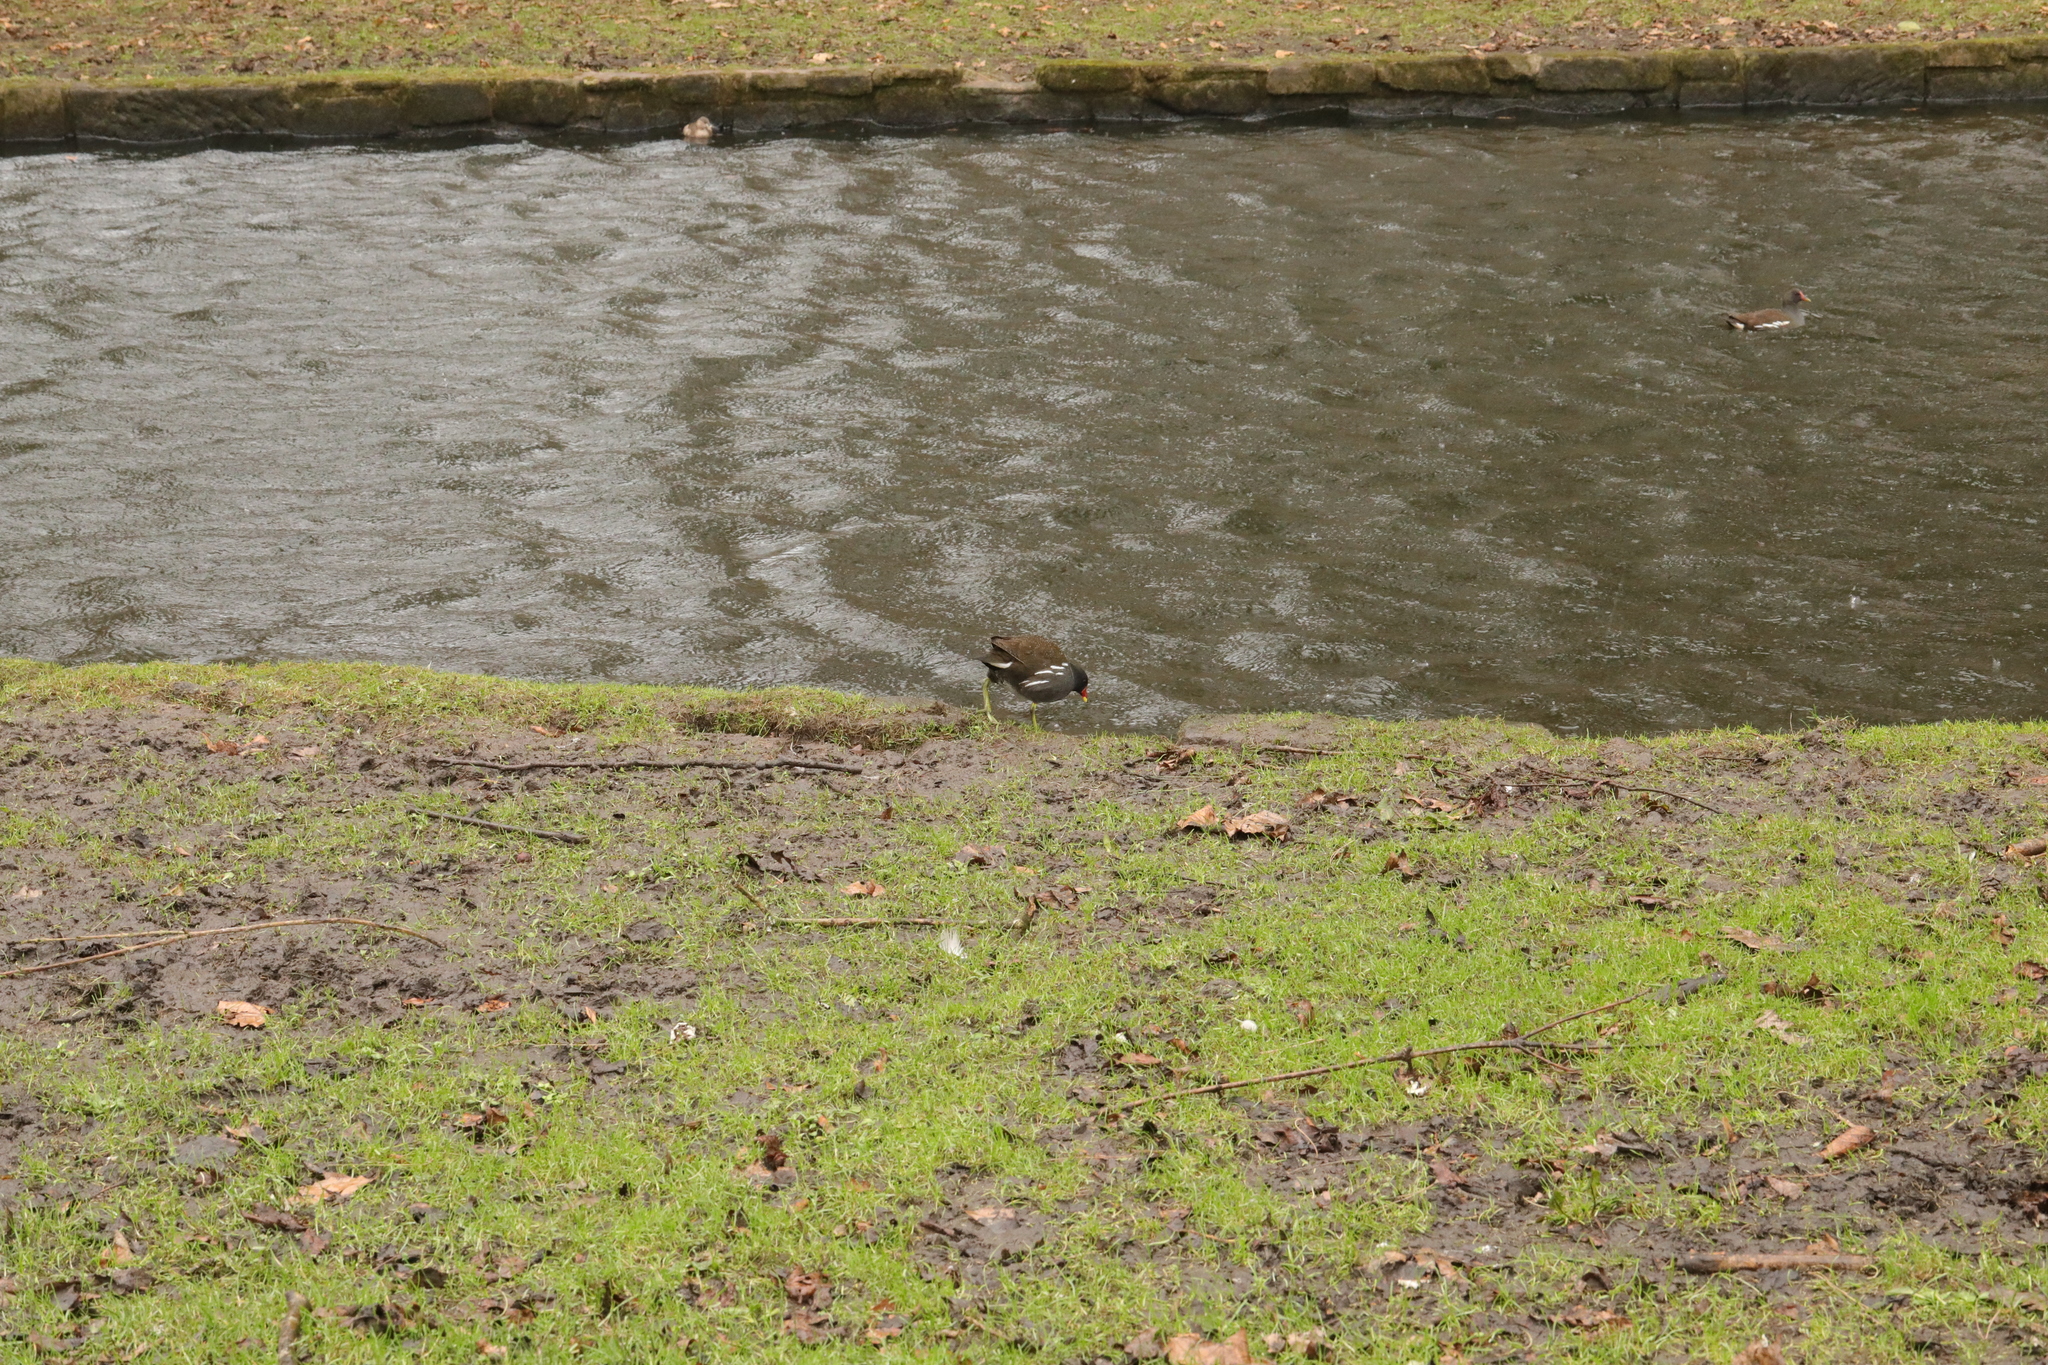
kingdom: Animalia
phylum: Chordata
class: Aves
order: Gruiformes
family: Rallidae
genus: Gallinula
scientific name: Gallinula chloropus
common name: Common moorhen
